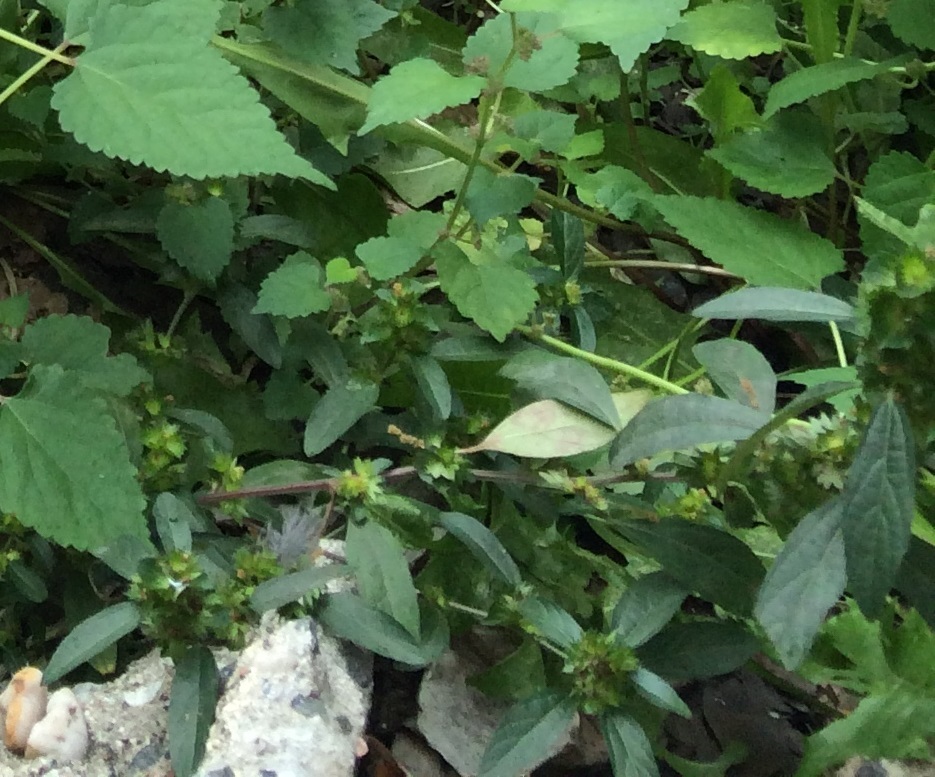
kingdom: Plantae
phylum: Tracheophyta
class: Magnoliopsida
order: Malpighiales
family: Euphorbiaceae
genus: Acalypha
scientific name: Acalypha gracilens
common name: Slender three-seeded mercury
